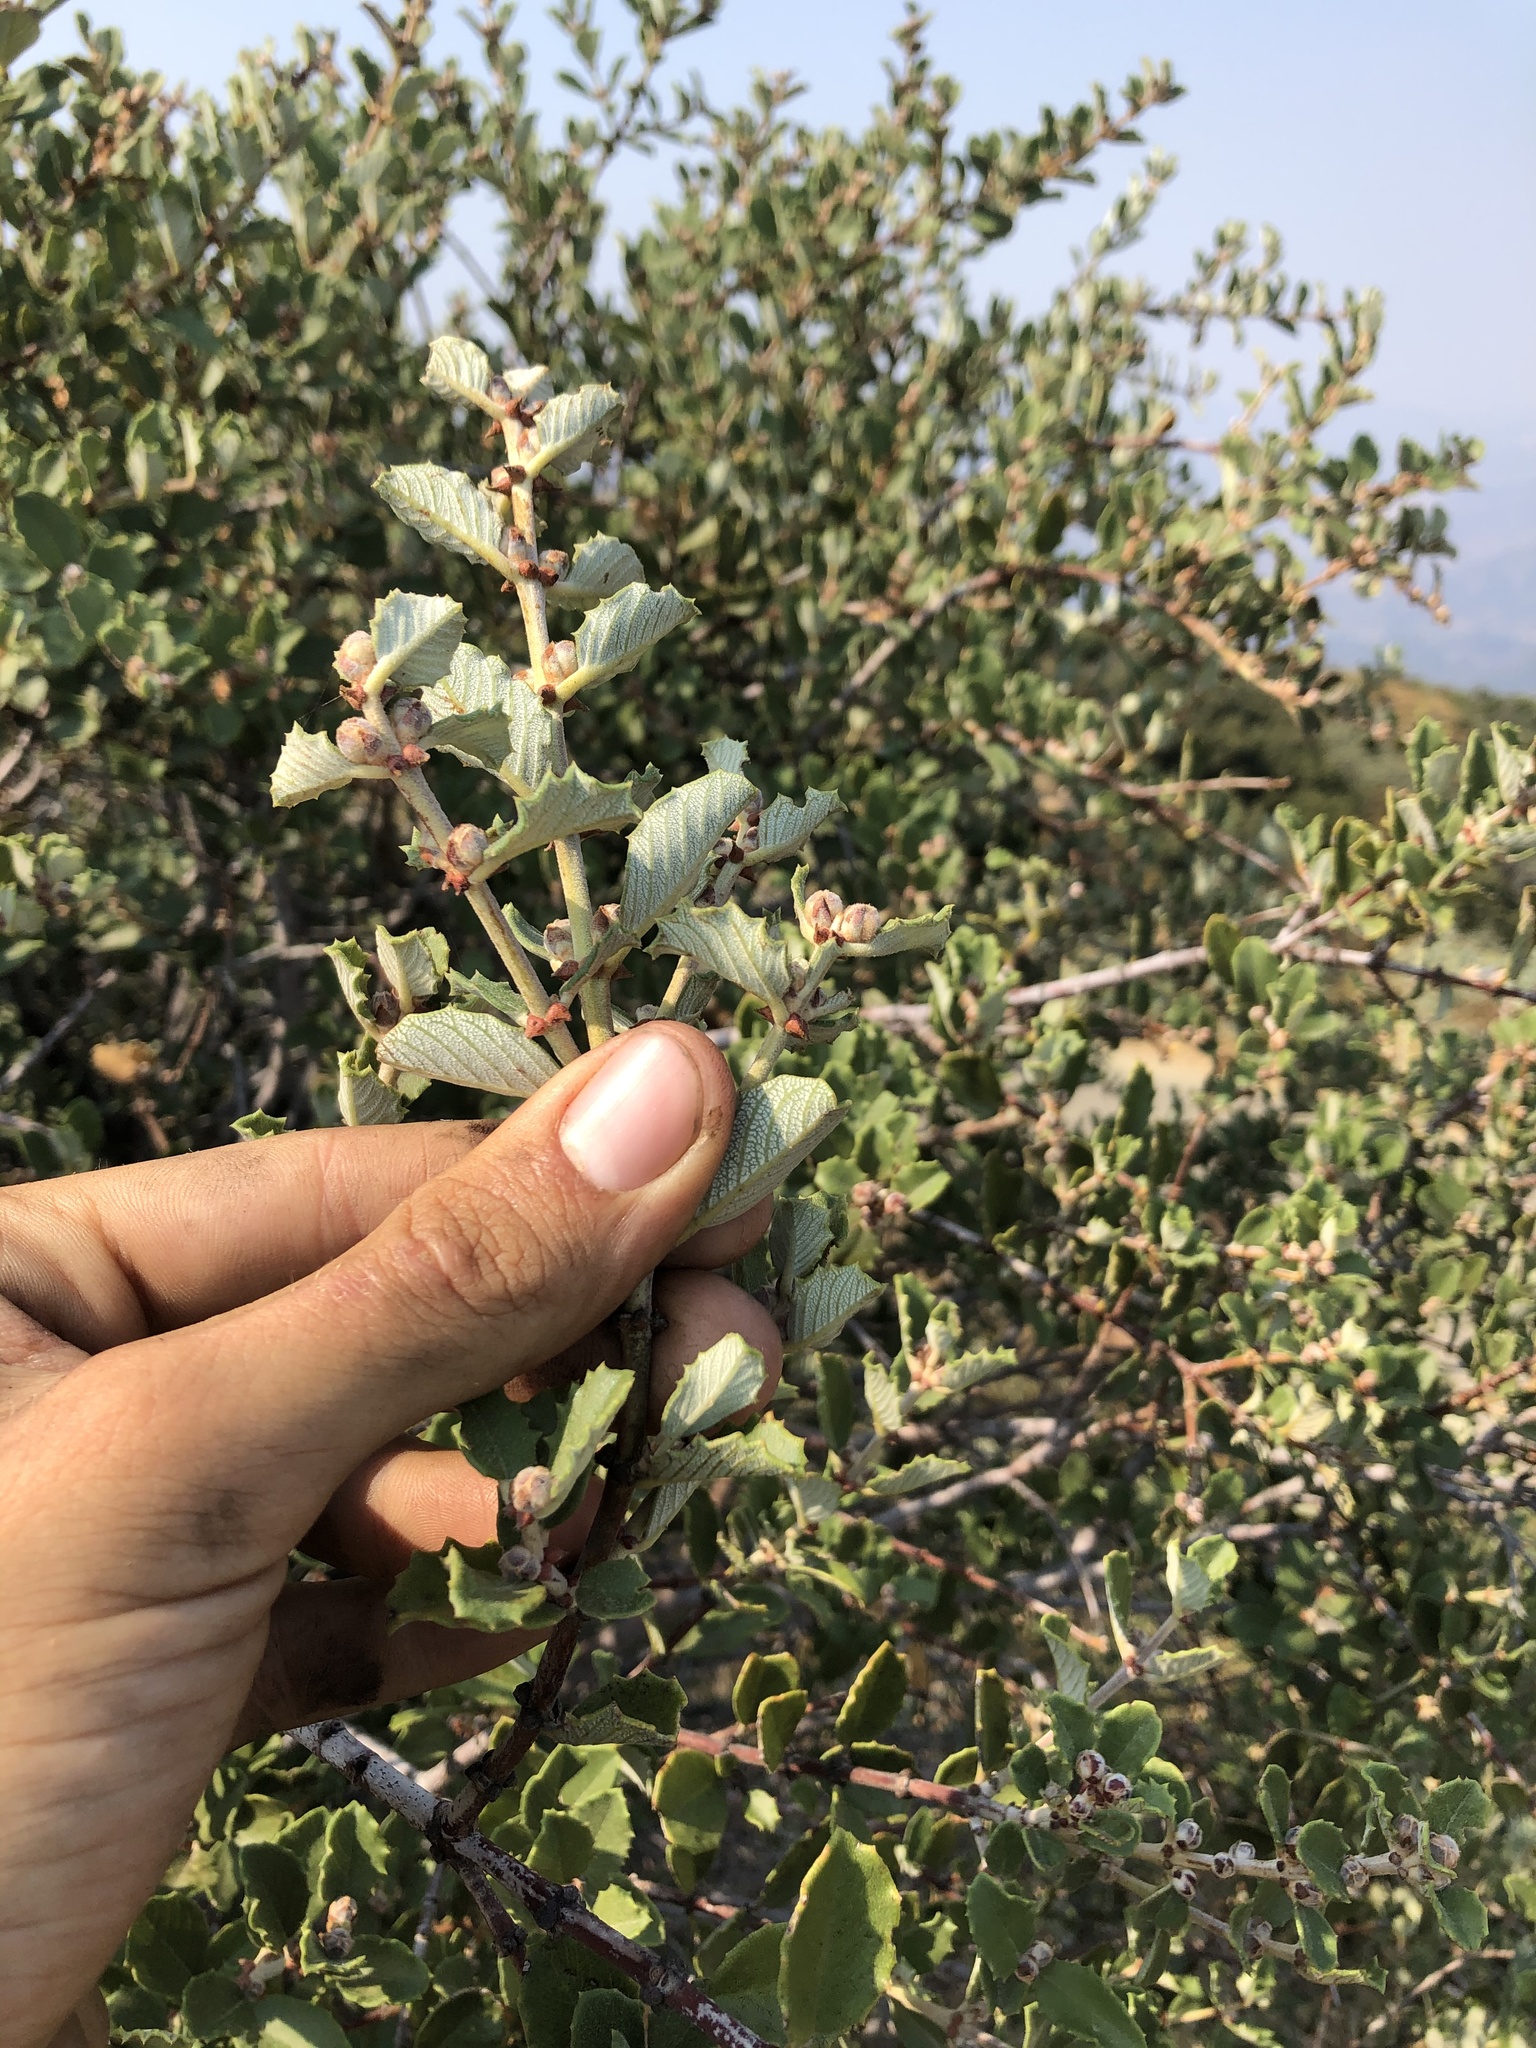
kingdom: Plantae
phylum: Tracheophyta
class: Magnoliopsida
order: Rosales
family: Rhamnaceae
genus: Ceanothus
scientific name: Ceanothus crassifolius
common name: Hoaryleaf ceanothus
